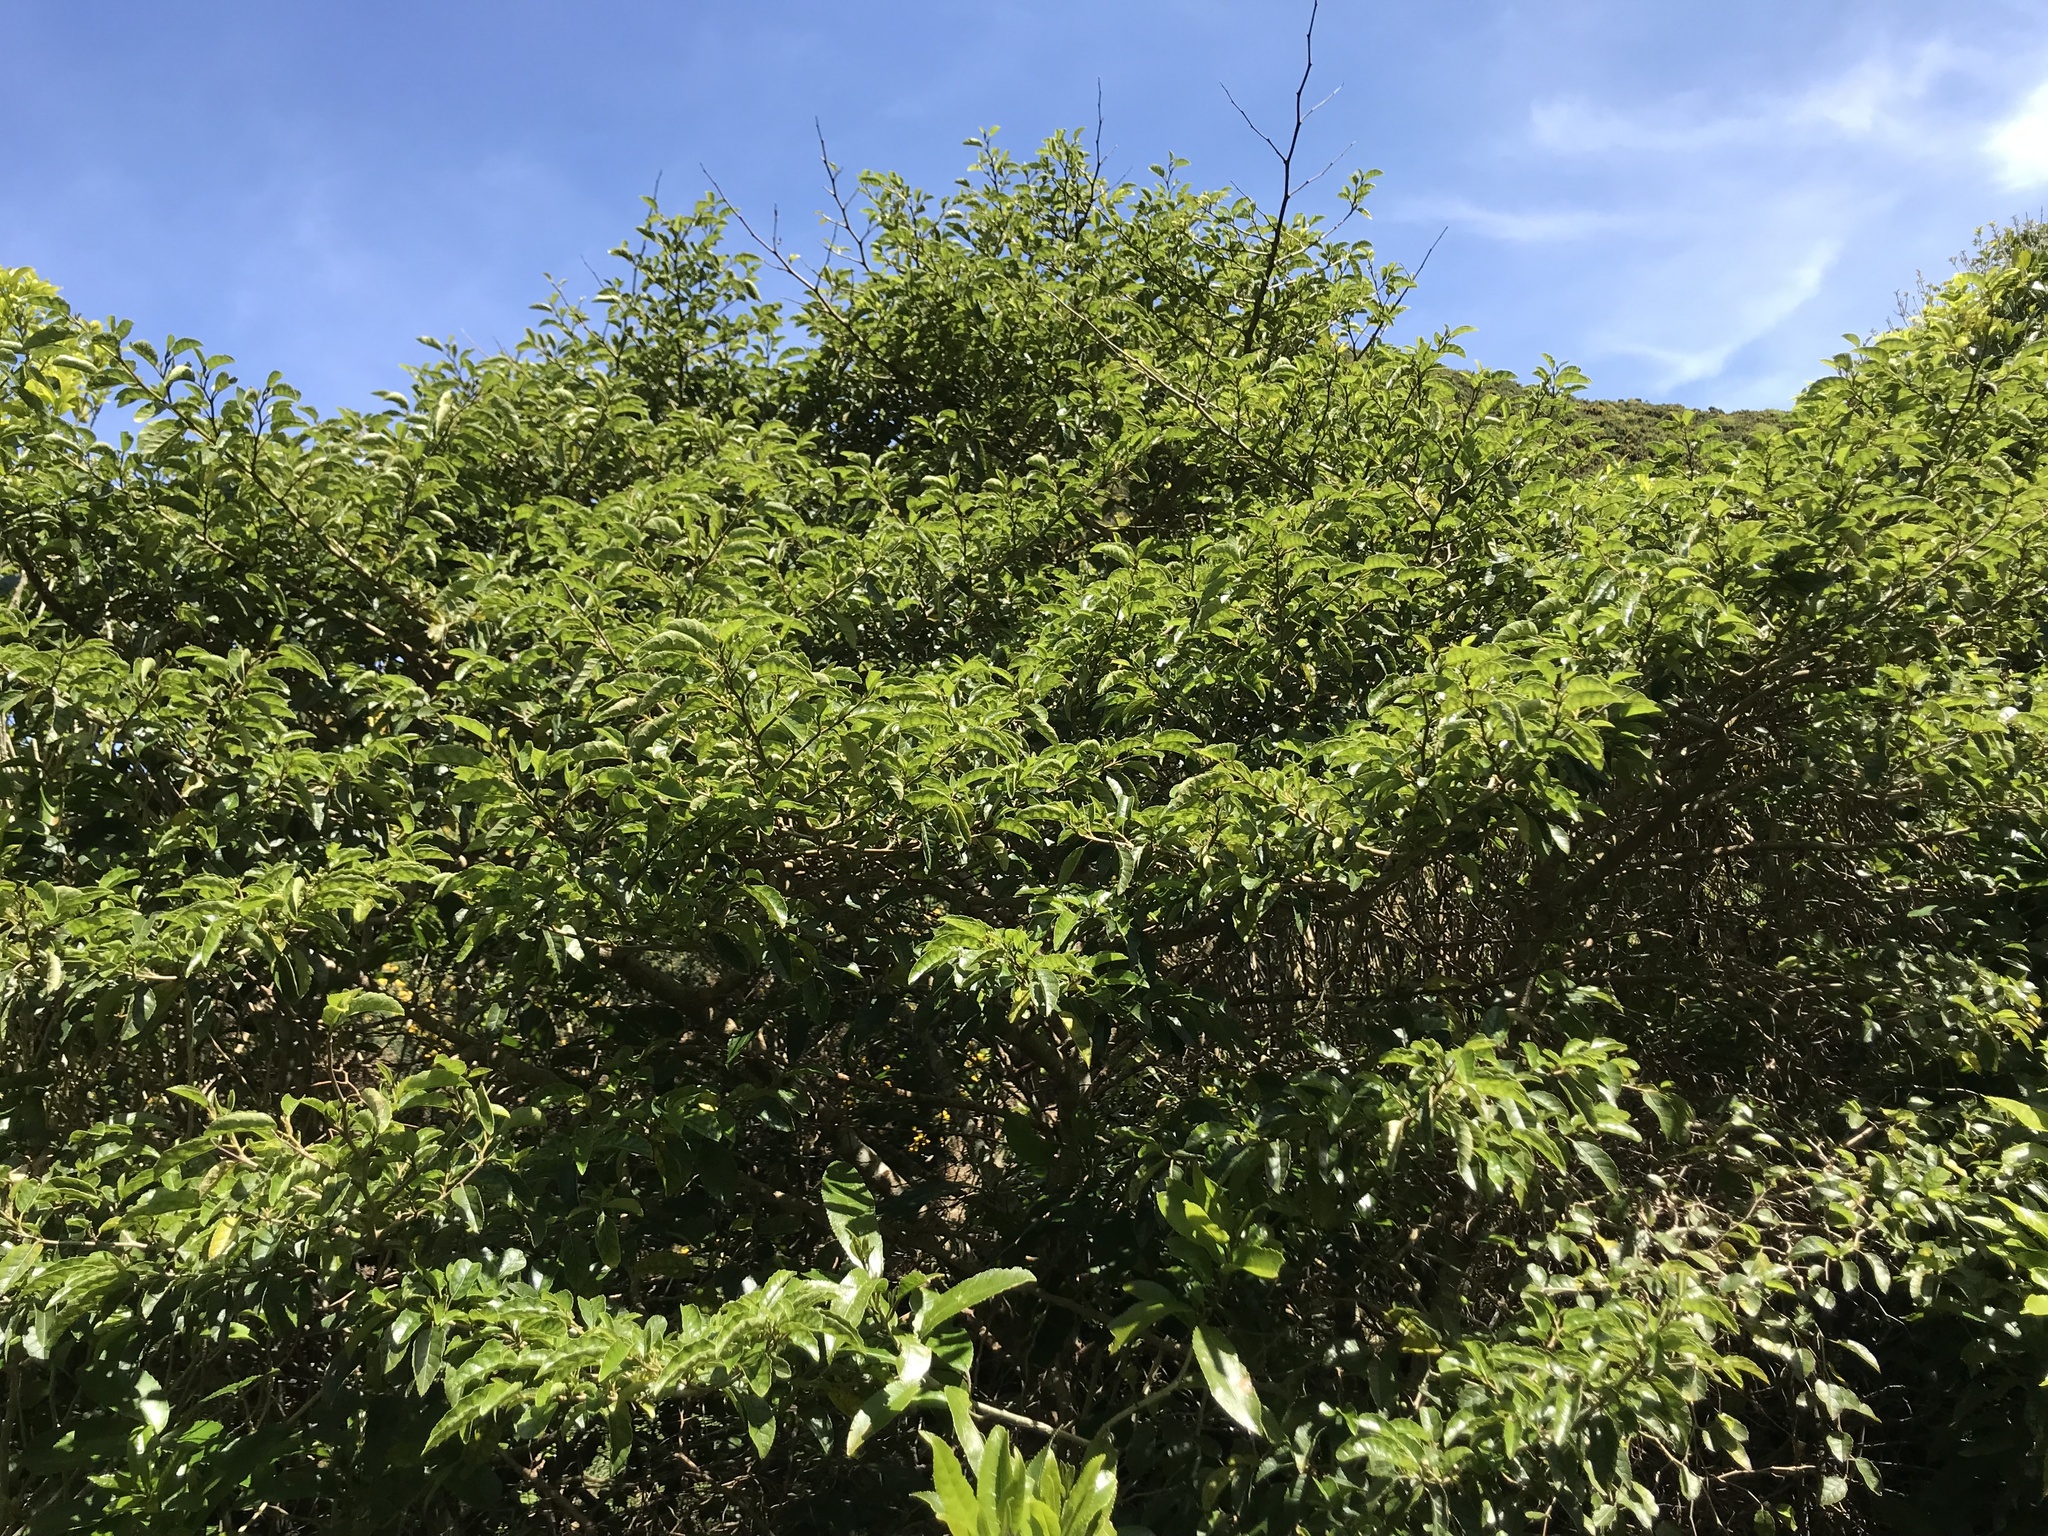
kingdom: Plantae
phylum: Tracheophyta
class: Magnoliopsida
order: Asterales
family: Rousseaceae
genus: Carpodetus
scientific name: Carpodetus serratus
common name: White mapau
